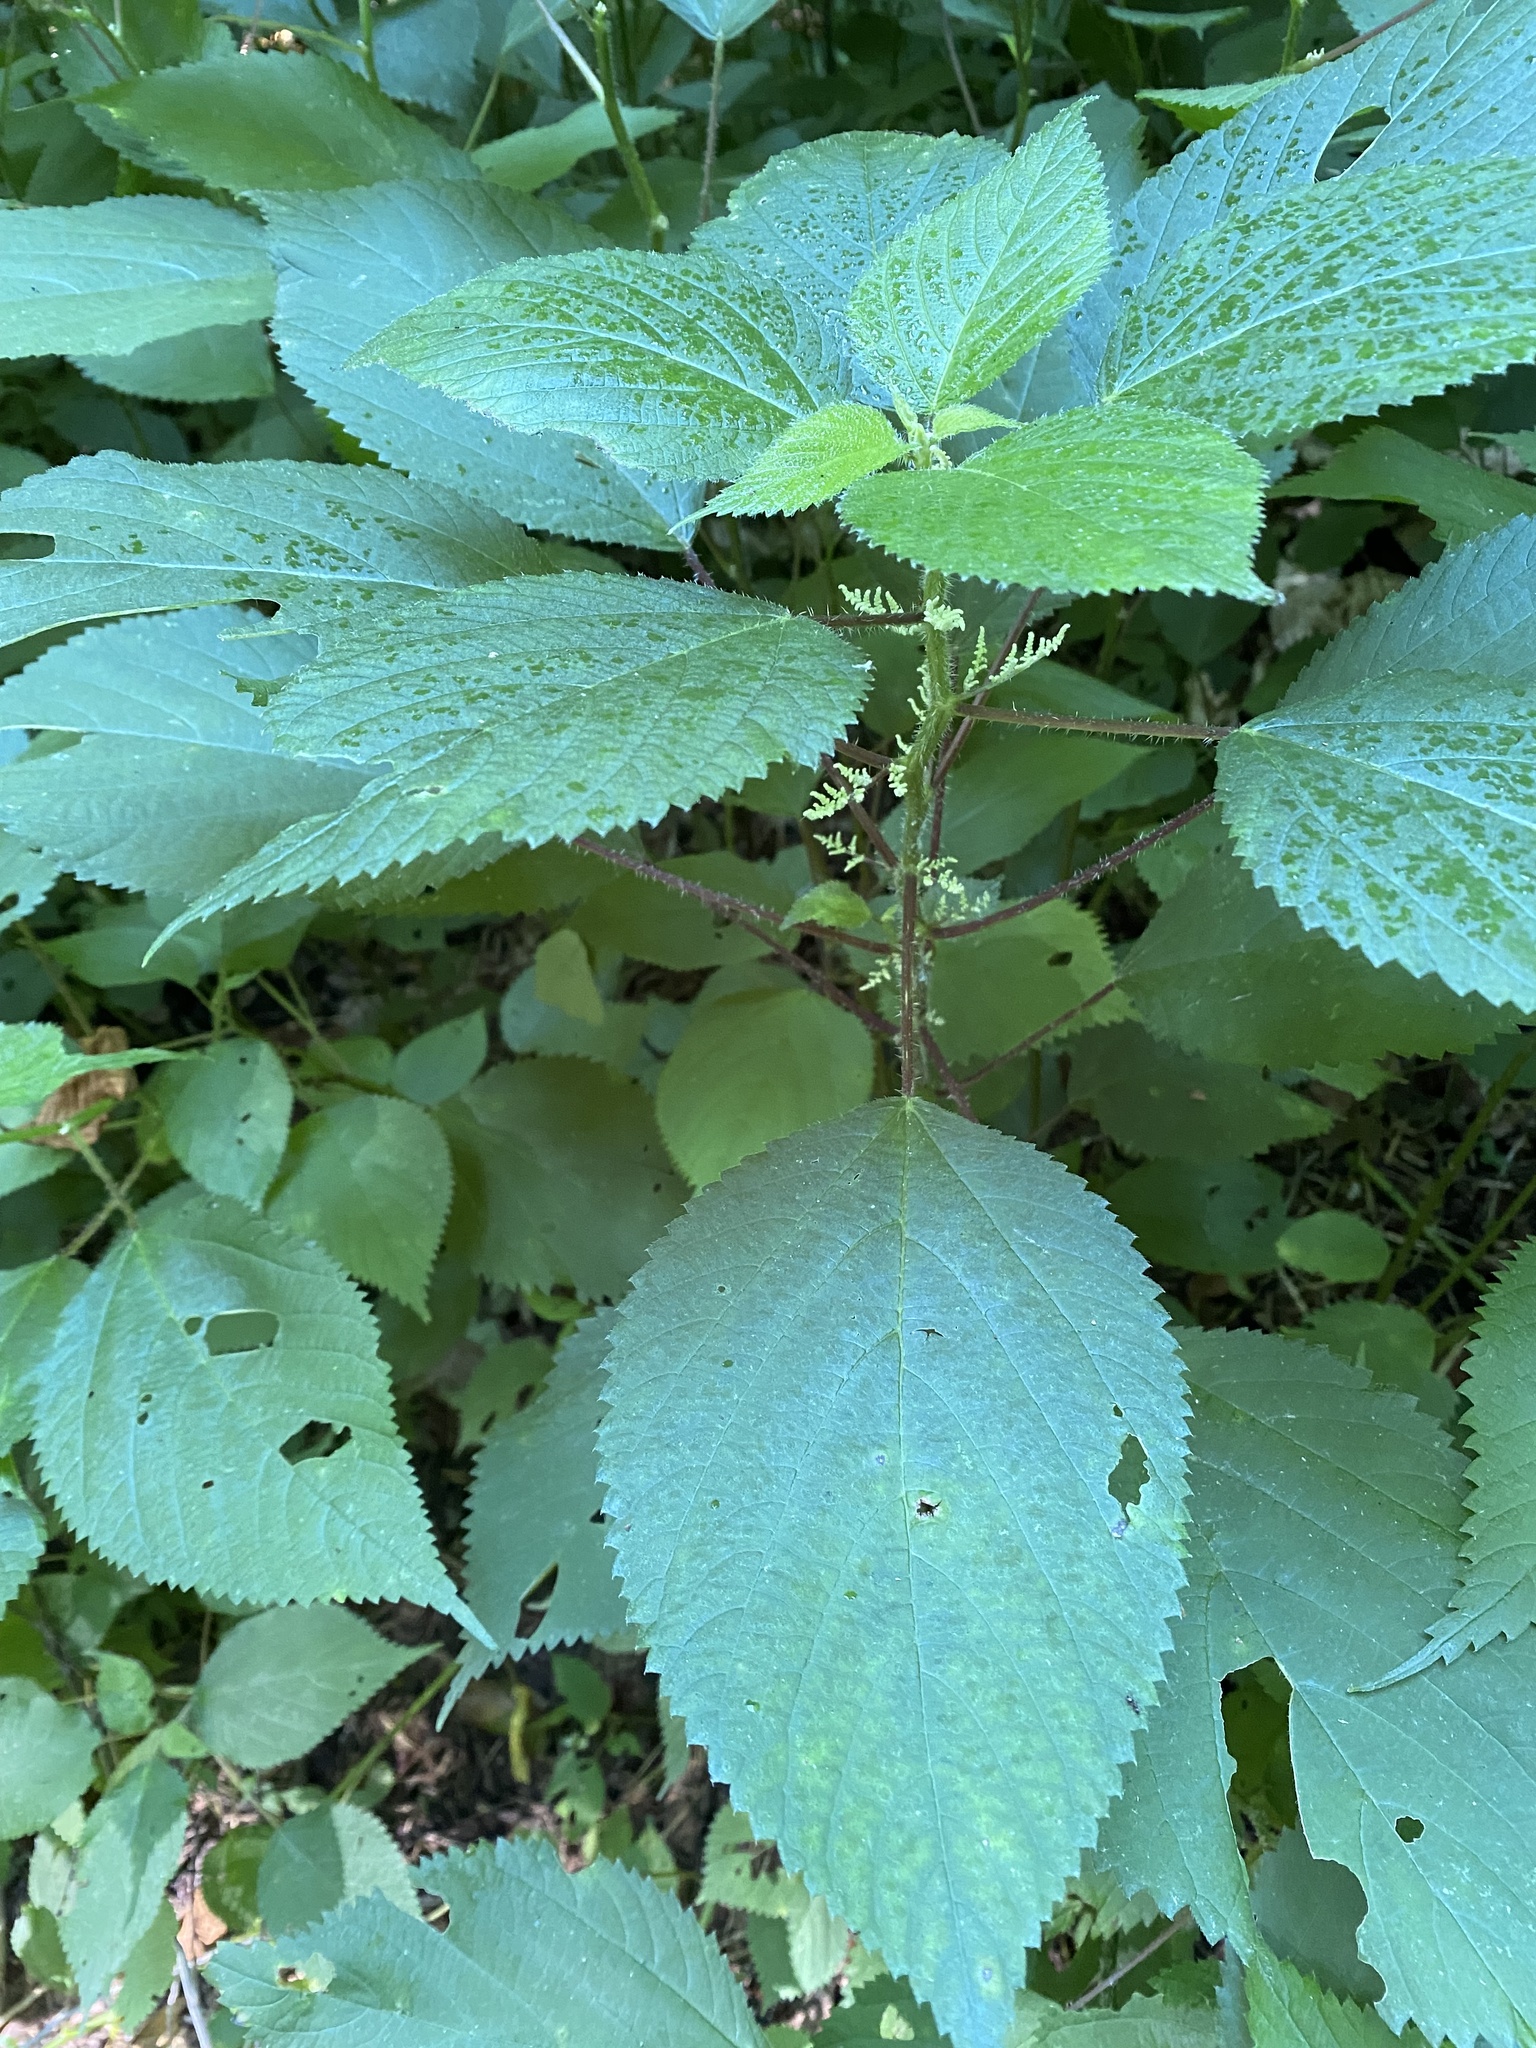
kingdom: Plantae
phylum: Tracheophyta
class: Magnoliopsida
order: Rosales
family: Urticaceae
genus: Laportea
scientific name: Laportea canadensis
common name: Canada nettle
